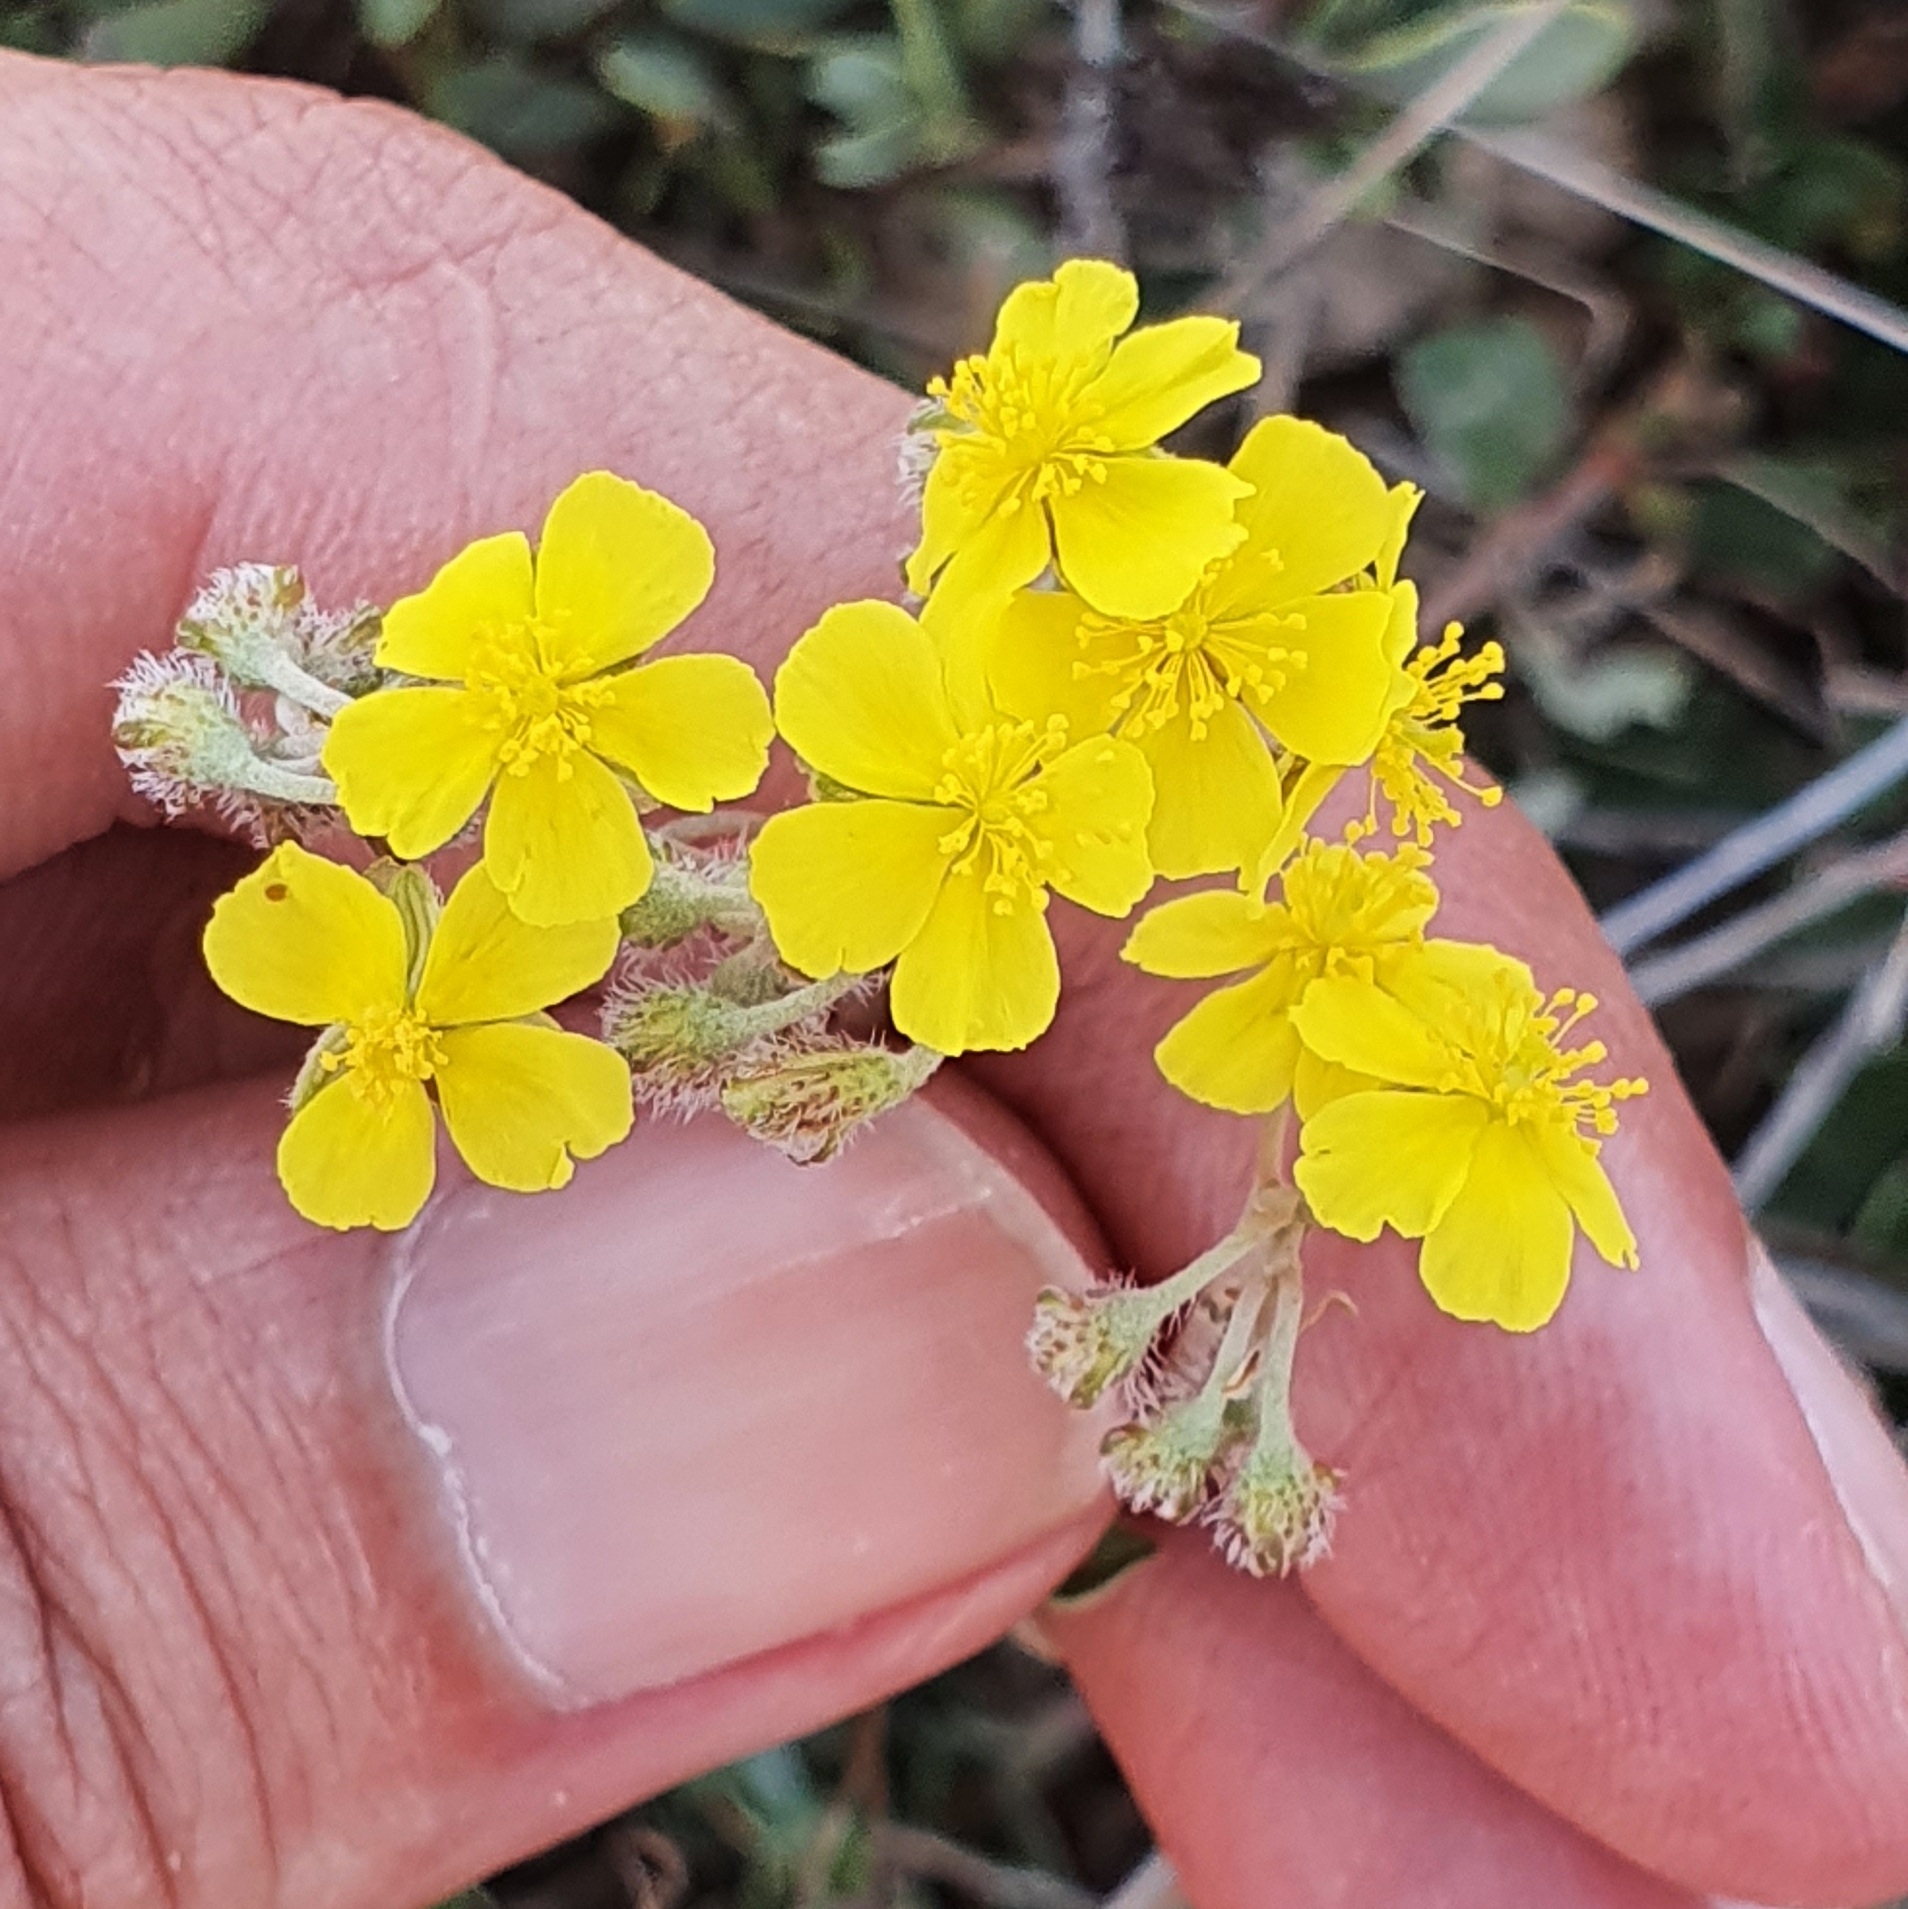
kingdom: Plantae
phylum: Tracheophyta
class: Magnoliopsida
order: Malvales
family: Cistaceae
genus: Helianthemum
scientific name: Helianthemum cinereum
